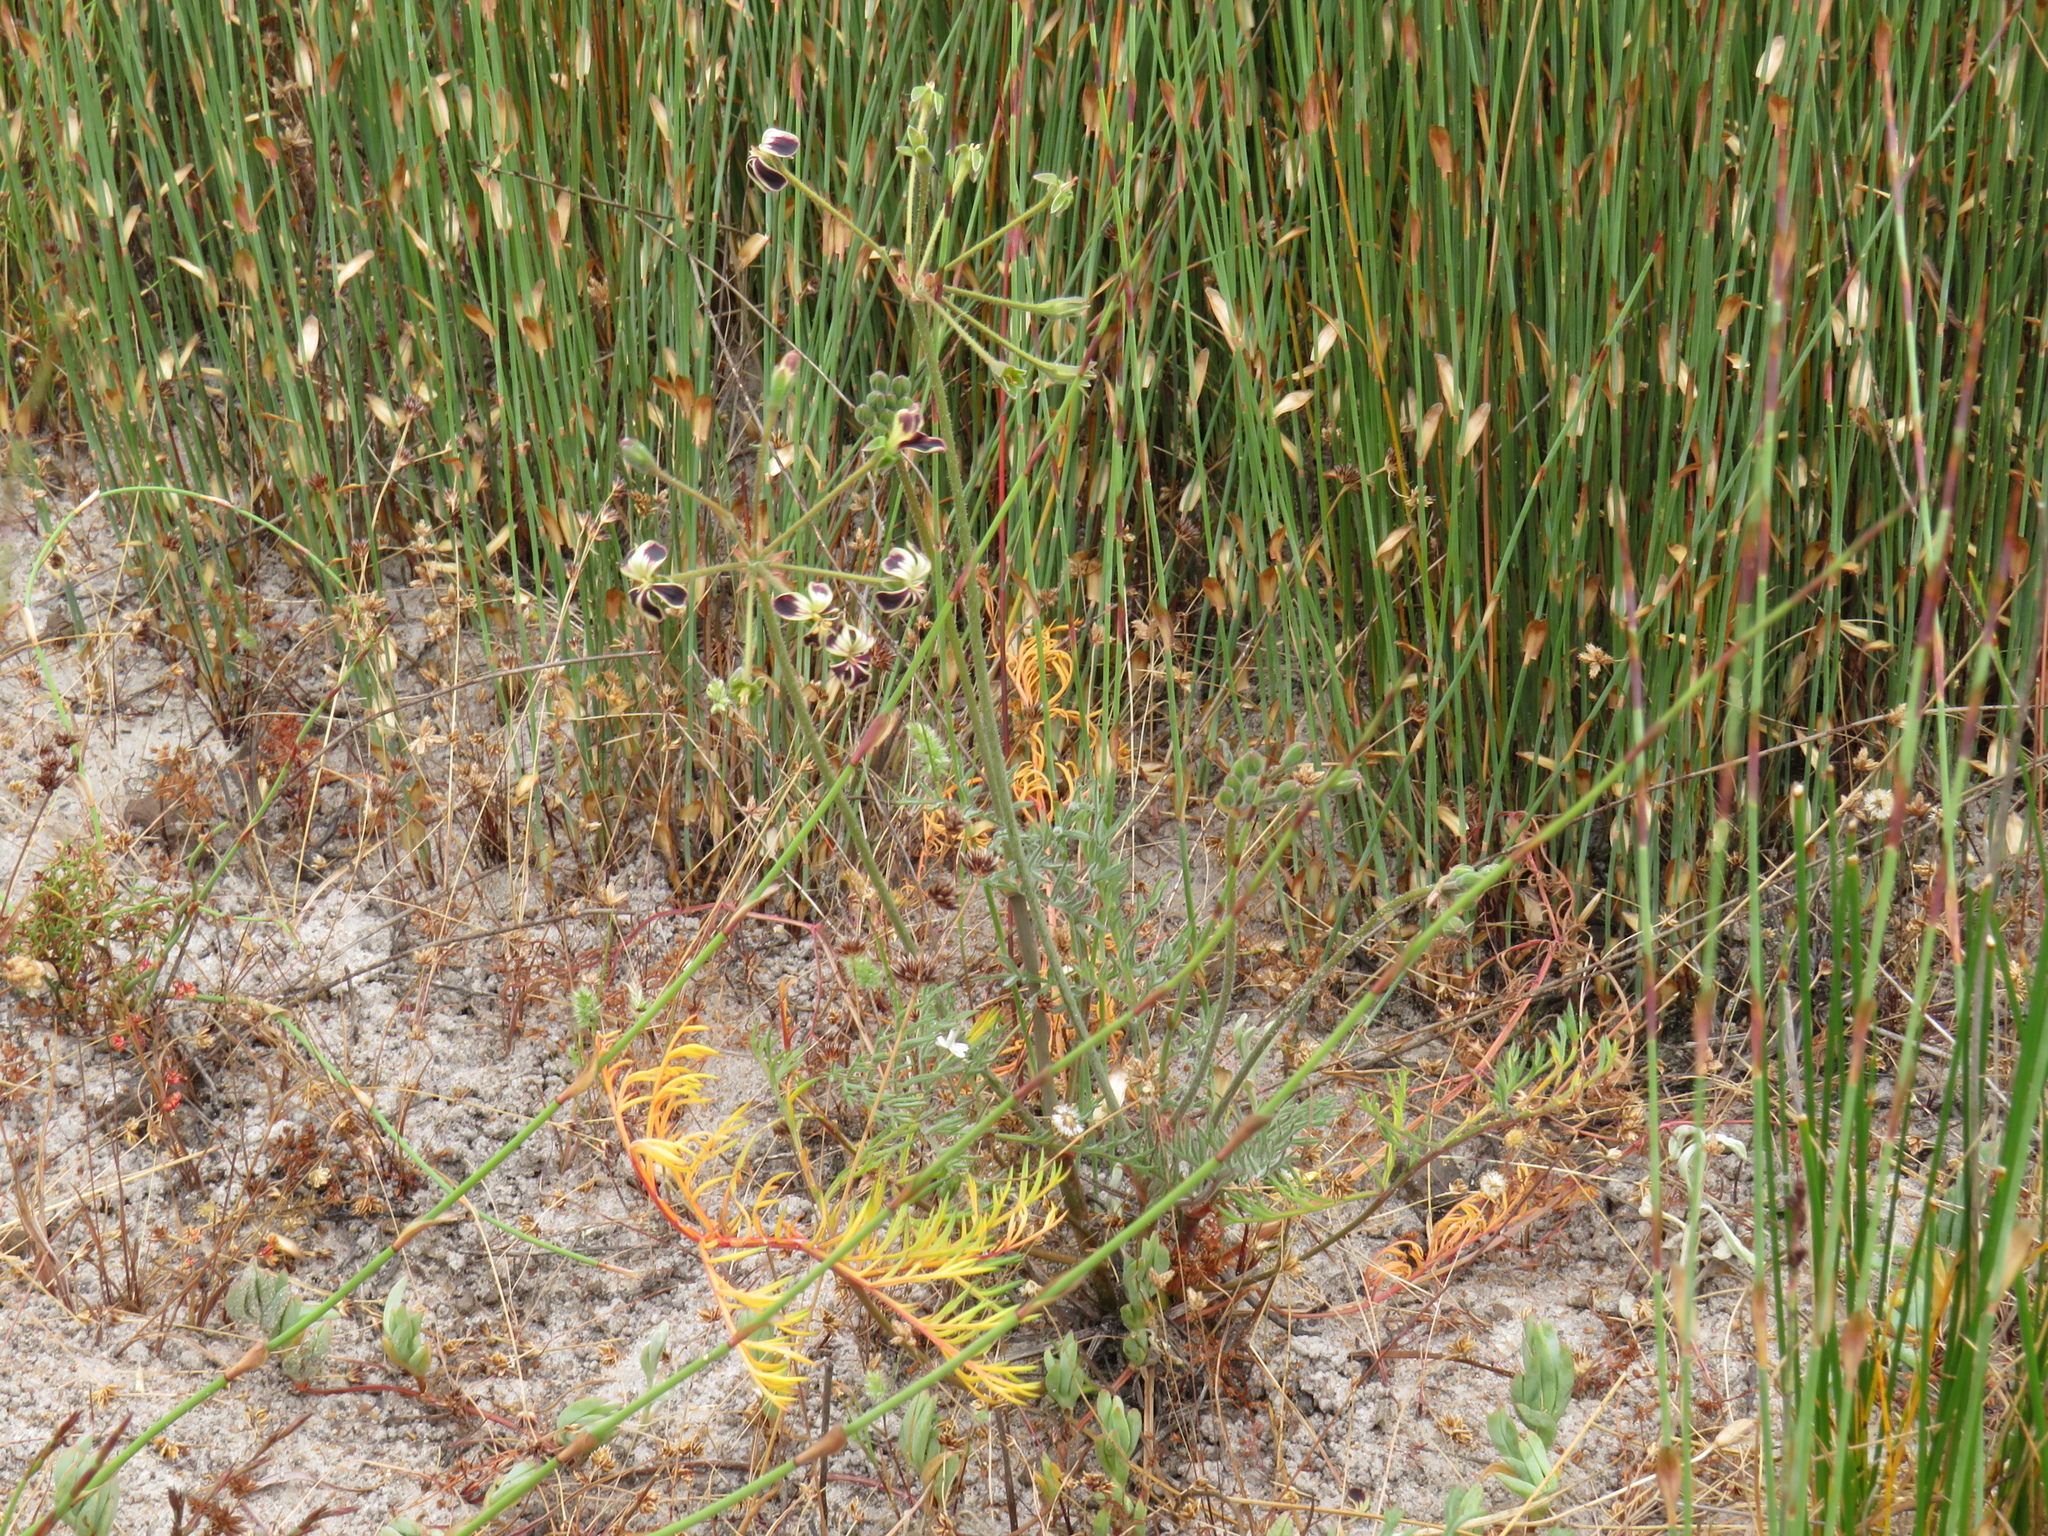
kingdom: Plantae
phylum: Tracheophyta
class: Magnoliopsida
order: Geraniales
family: Geraniaceae
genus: Pelargonium
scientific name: Pelargonium triste
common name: Night-scent pelargonium
